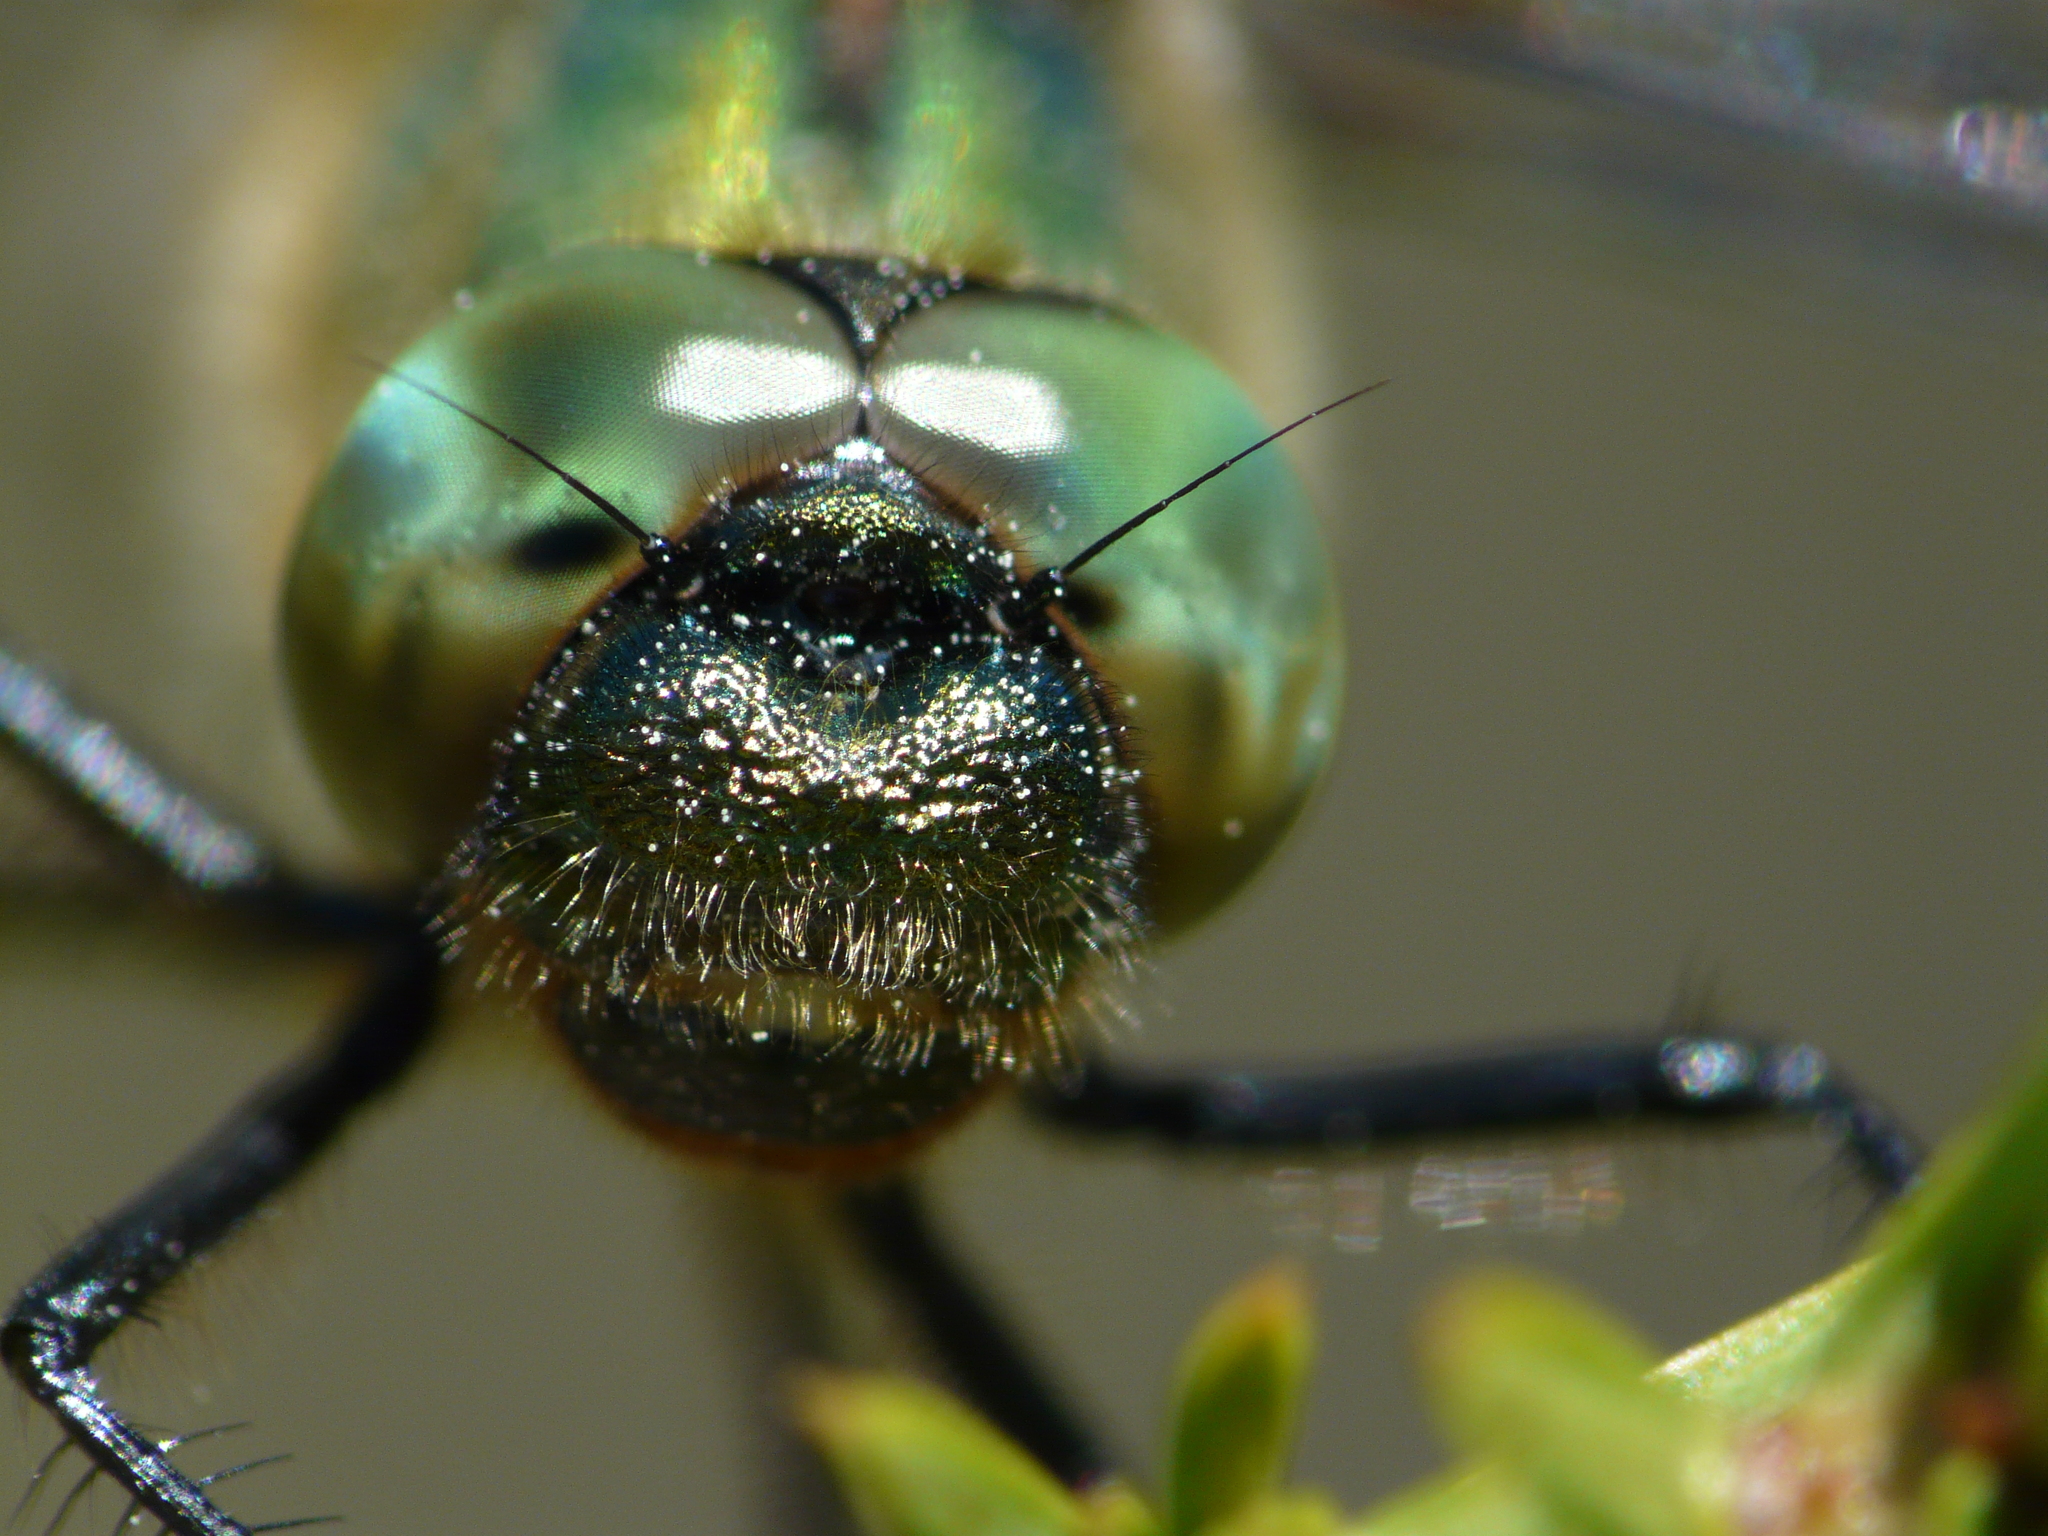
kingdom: Animalia
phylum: Arthropoda
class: Insecta
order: Odonata
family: Corduliidae
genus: Cordulia
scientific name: Cordulia aenea
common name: Downy emerald
